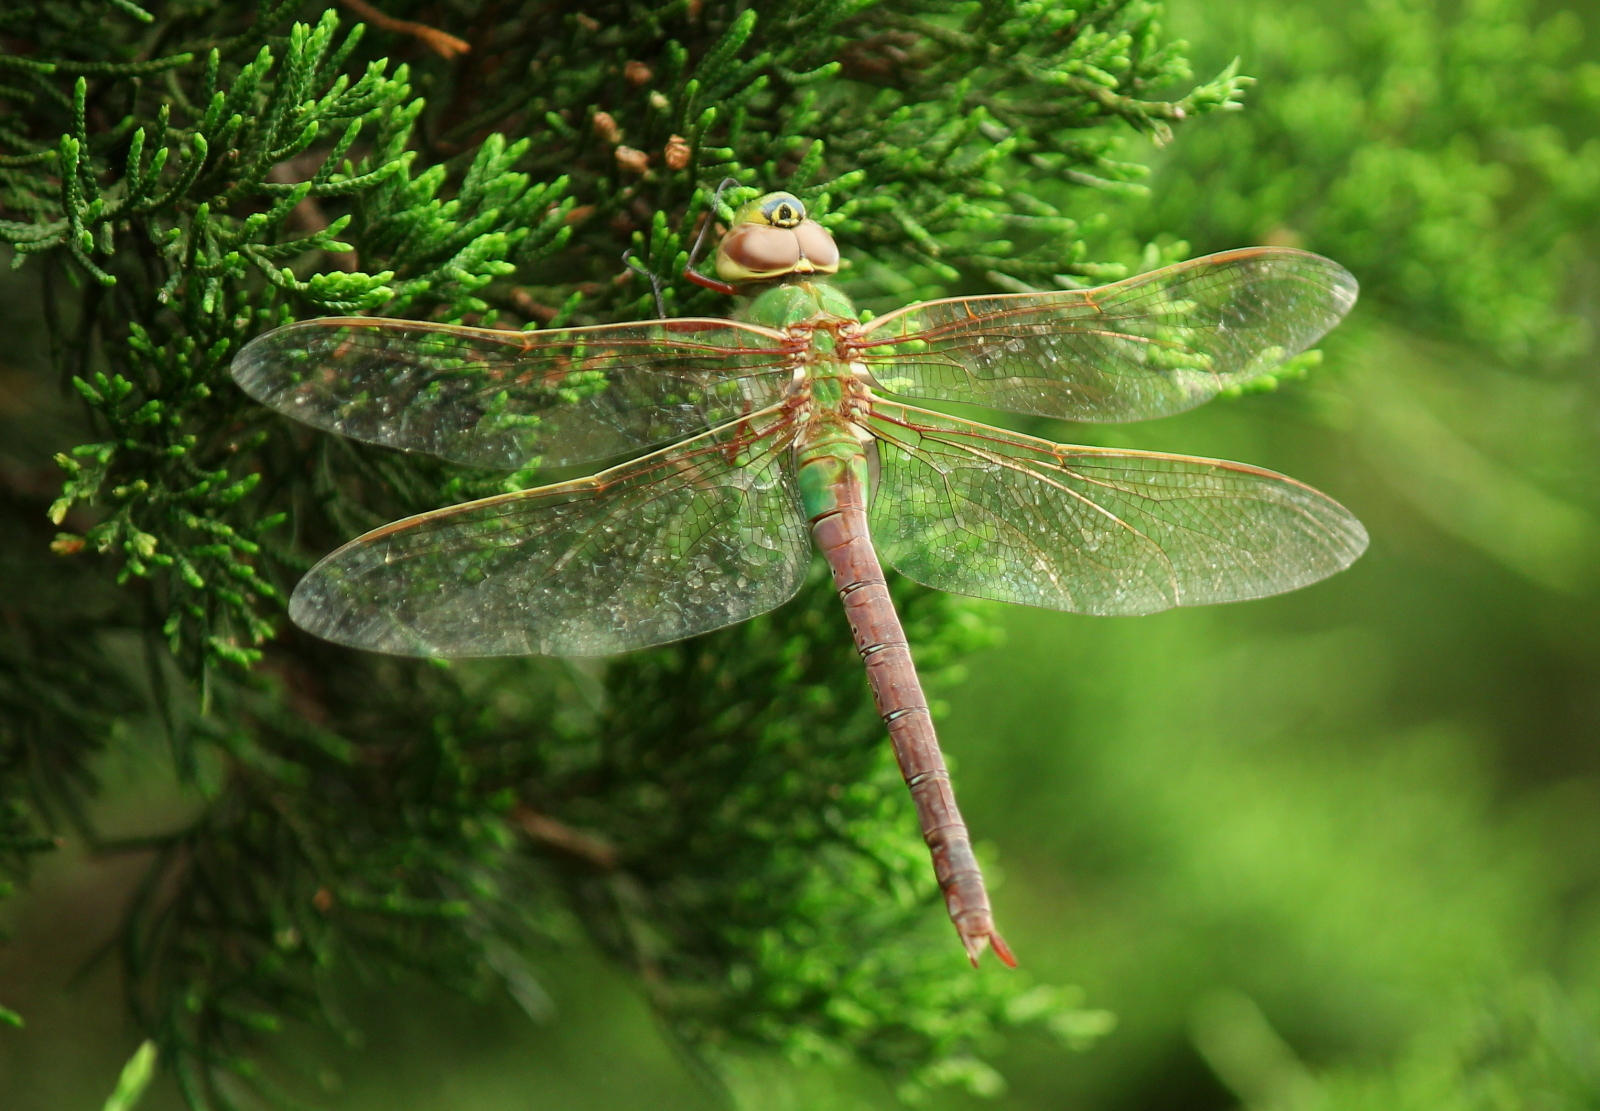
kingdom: Animalia
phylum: Arthropoda
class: Insecta
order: Odonata
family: Aeshnidae
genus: Anax
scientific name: Anax junius
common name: Common green darner
